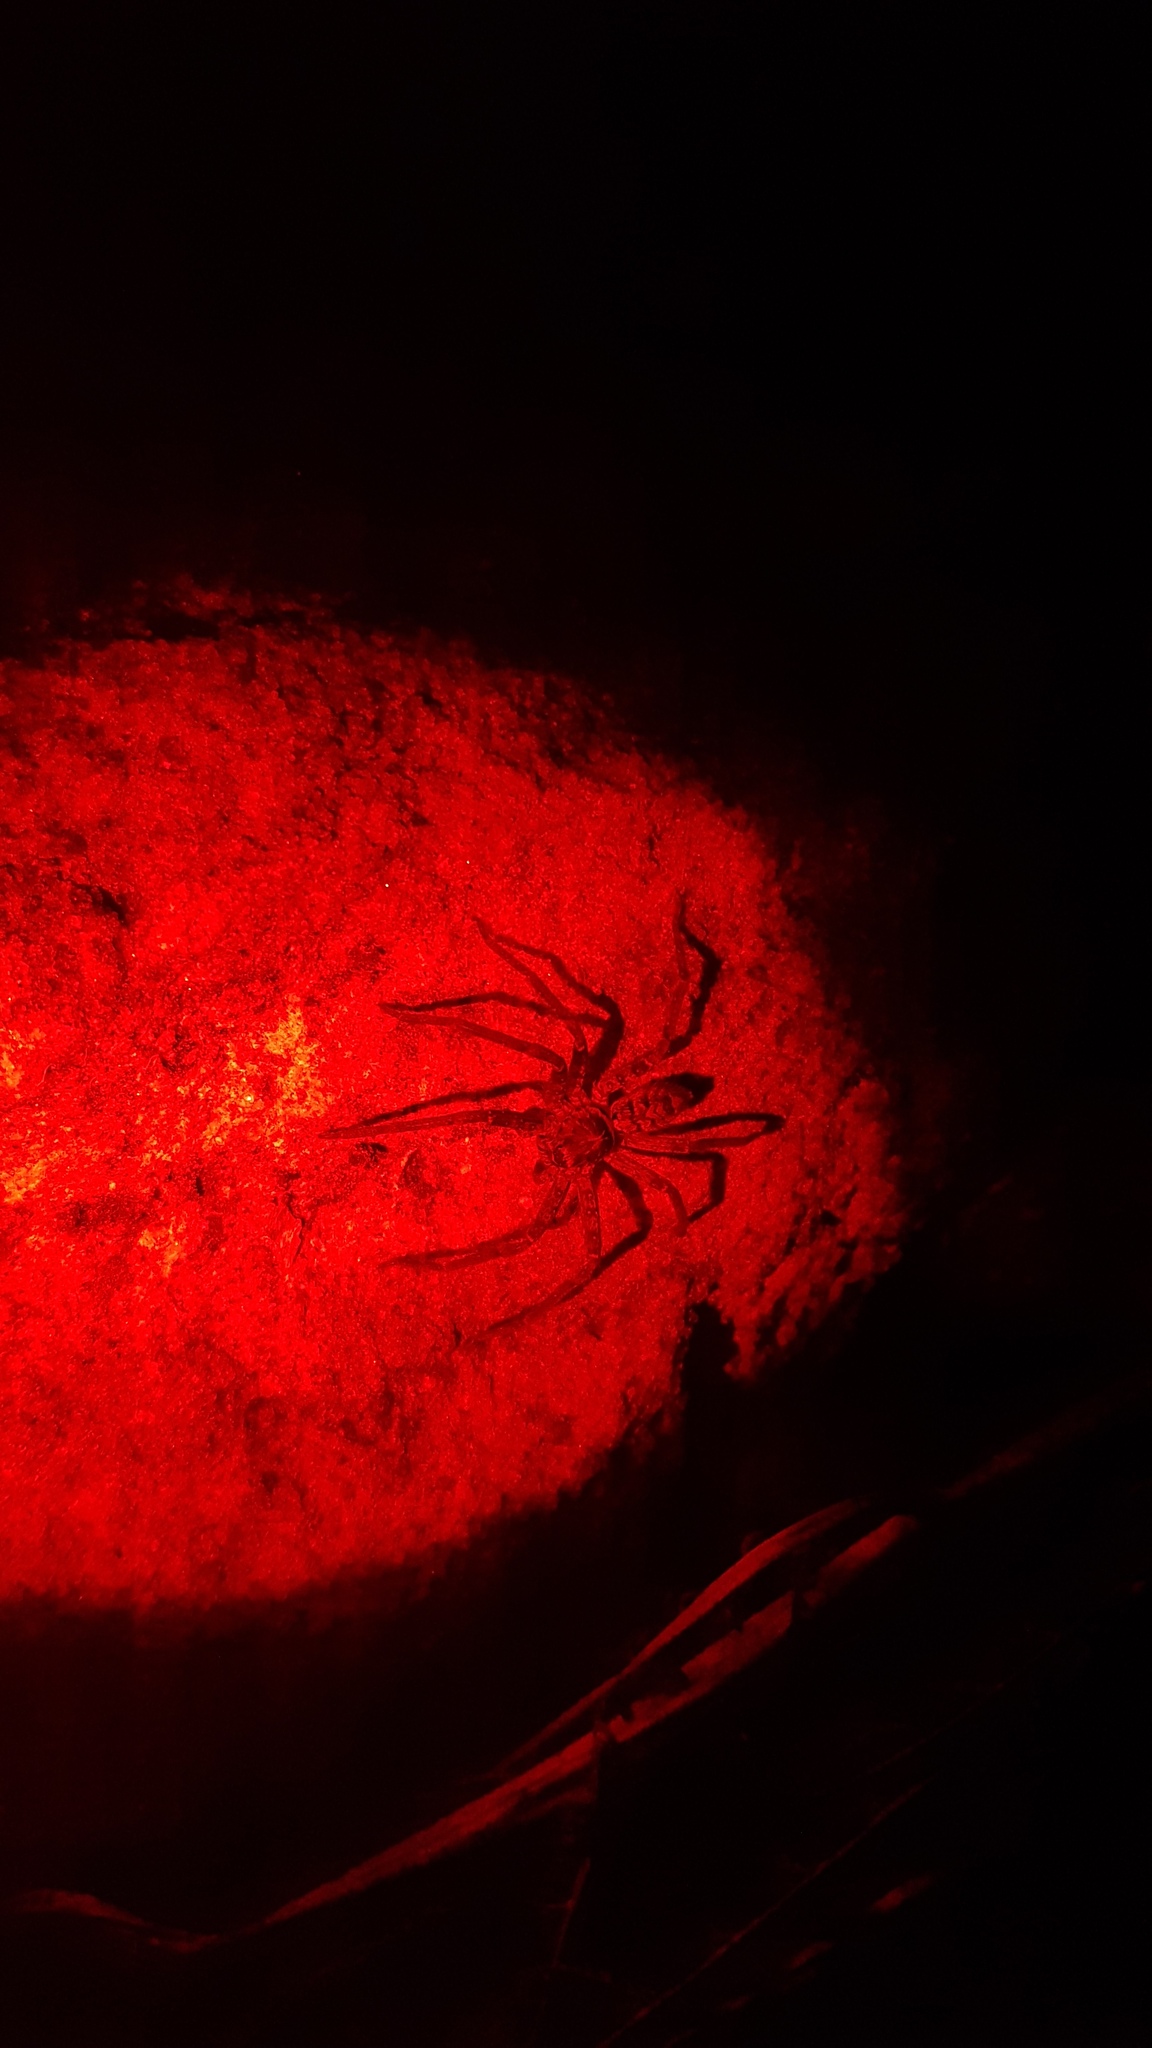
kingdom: Animalia
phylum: Arthropoda
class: Arachnida
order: Araneae
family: Sparassidae
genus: Heteropoda
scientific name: Heteropoda jugulans
